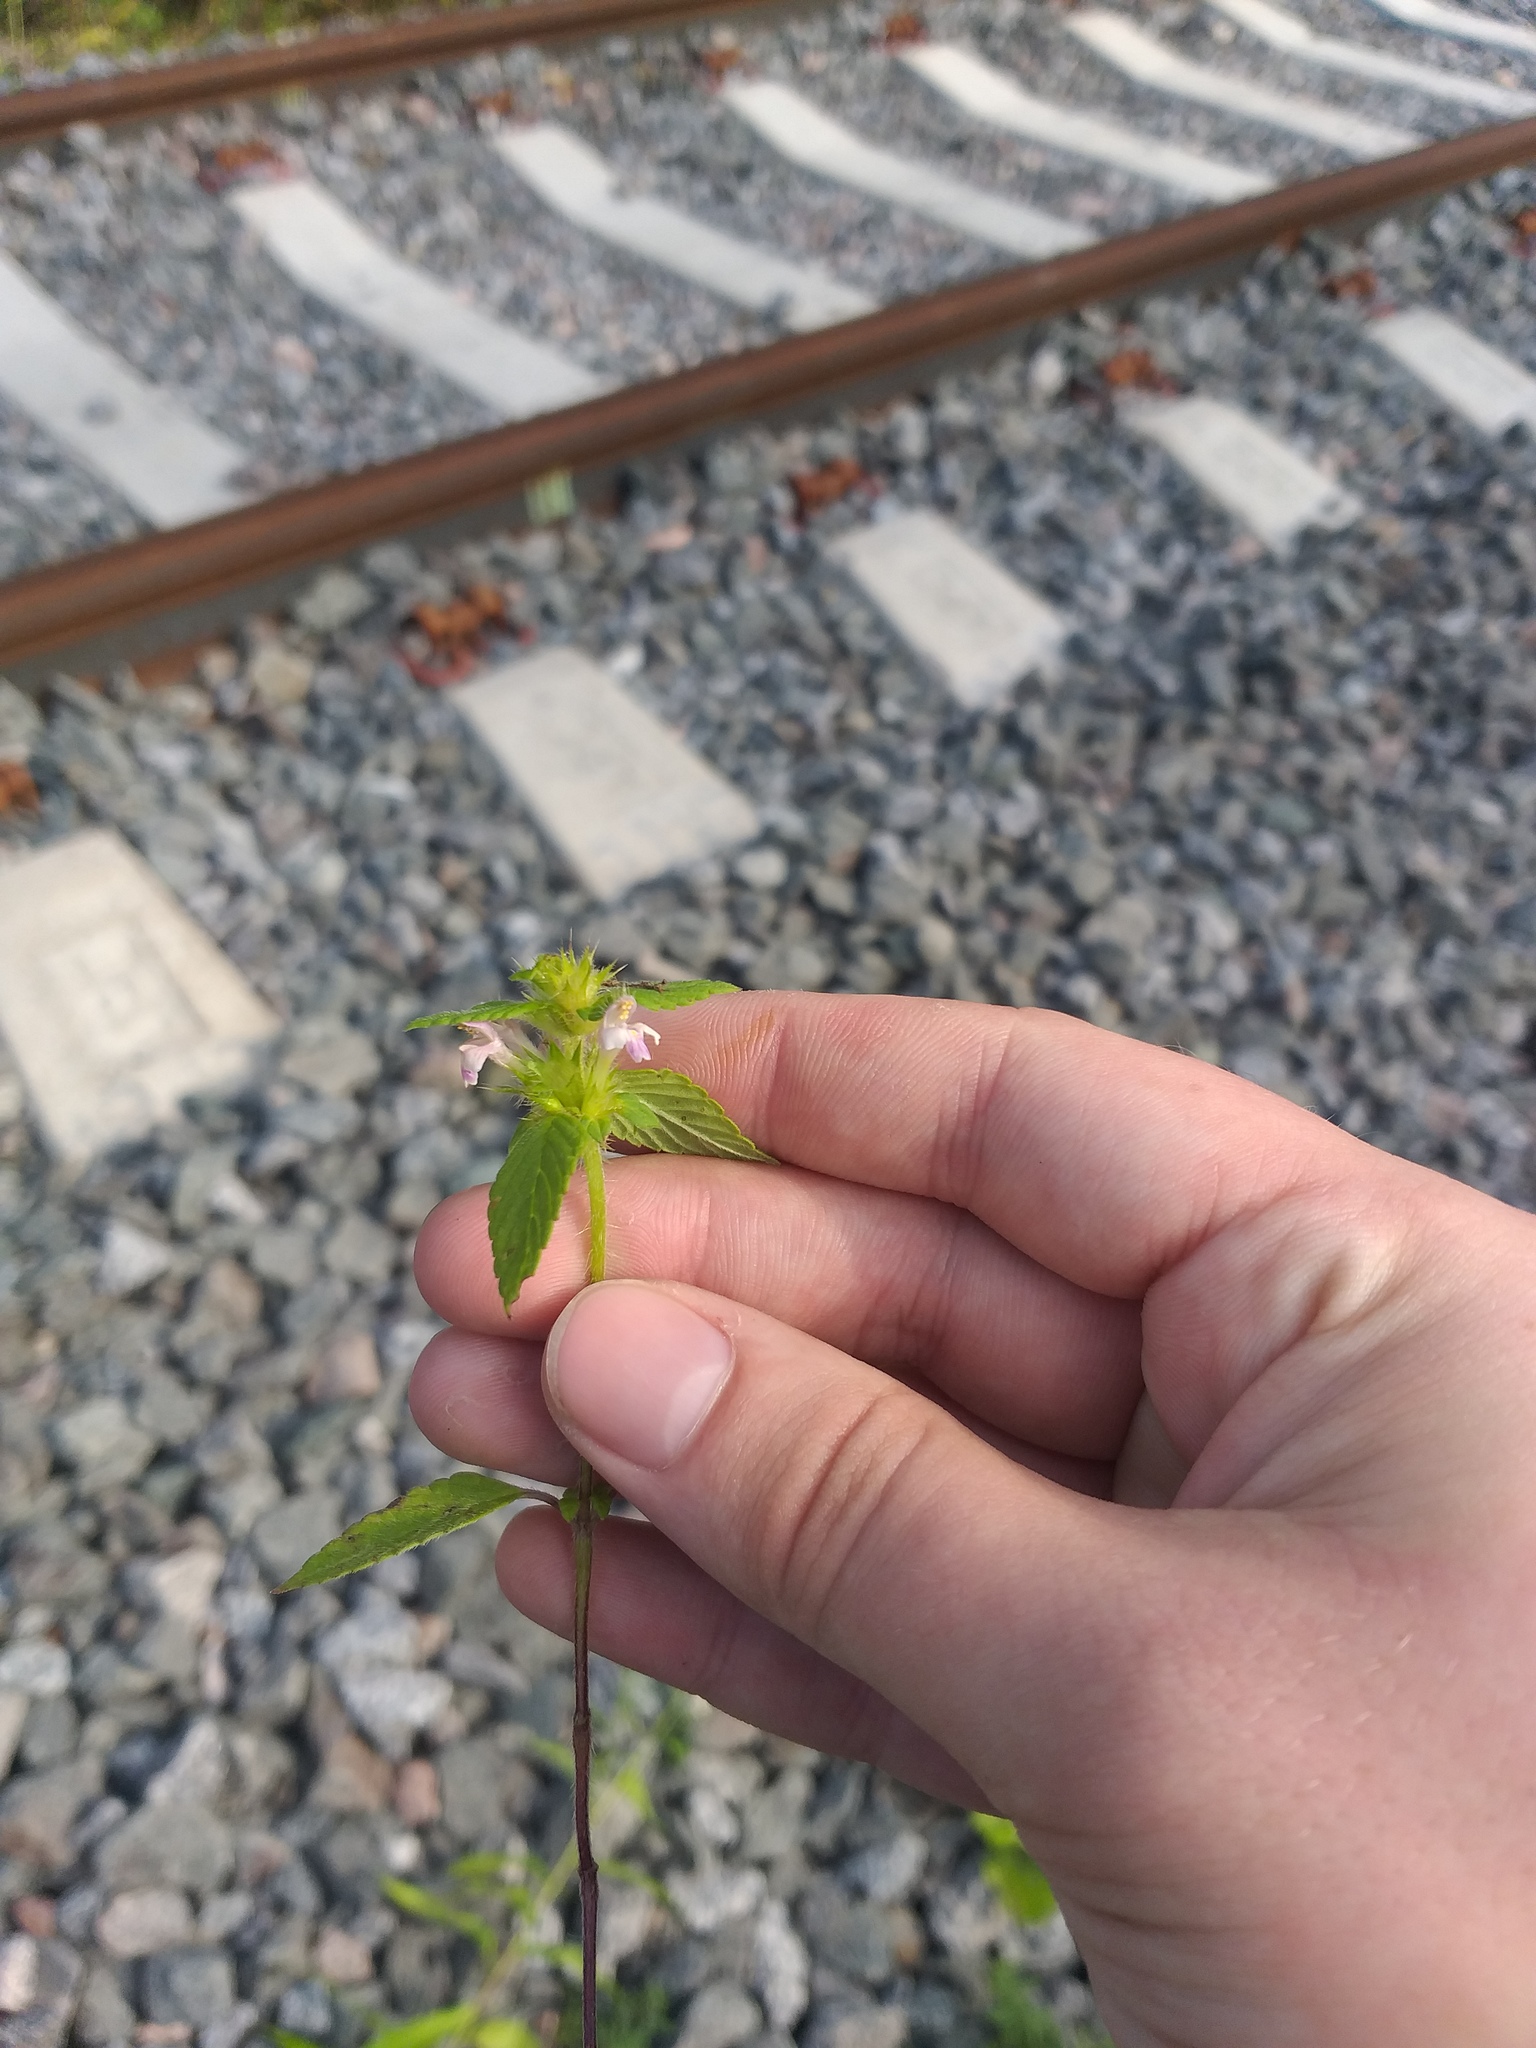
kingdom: Plantae
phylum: Tracheophyta
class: Magnoliopsida
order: Lamiales
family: Lamiaceae
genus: Galeopsis
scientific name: Galeopsis bifida
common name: Bifid hemp-nettle
